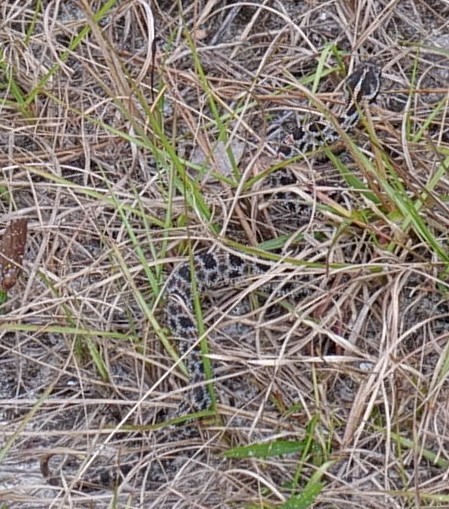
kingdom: Animalia
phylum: Chordata
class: Squamata
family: Viperidae
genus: Sistrurus
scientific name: Sistrurus miliarius
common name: Pygmy rattlesnake
